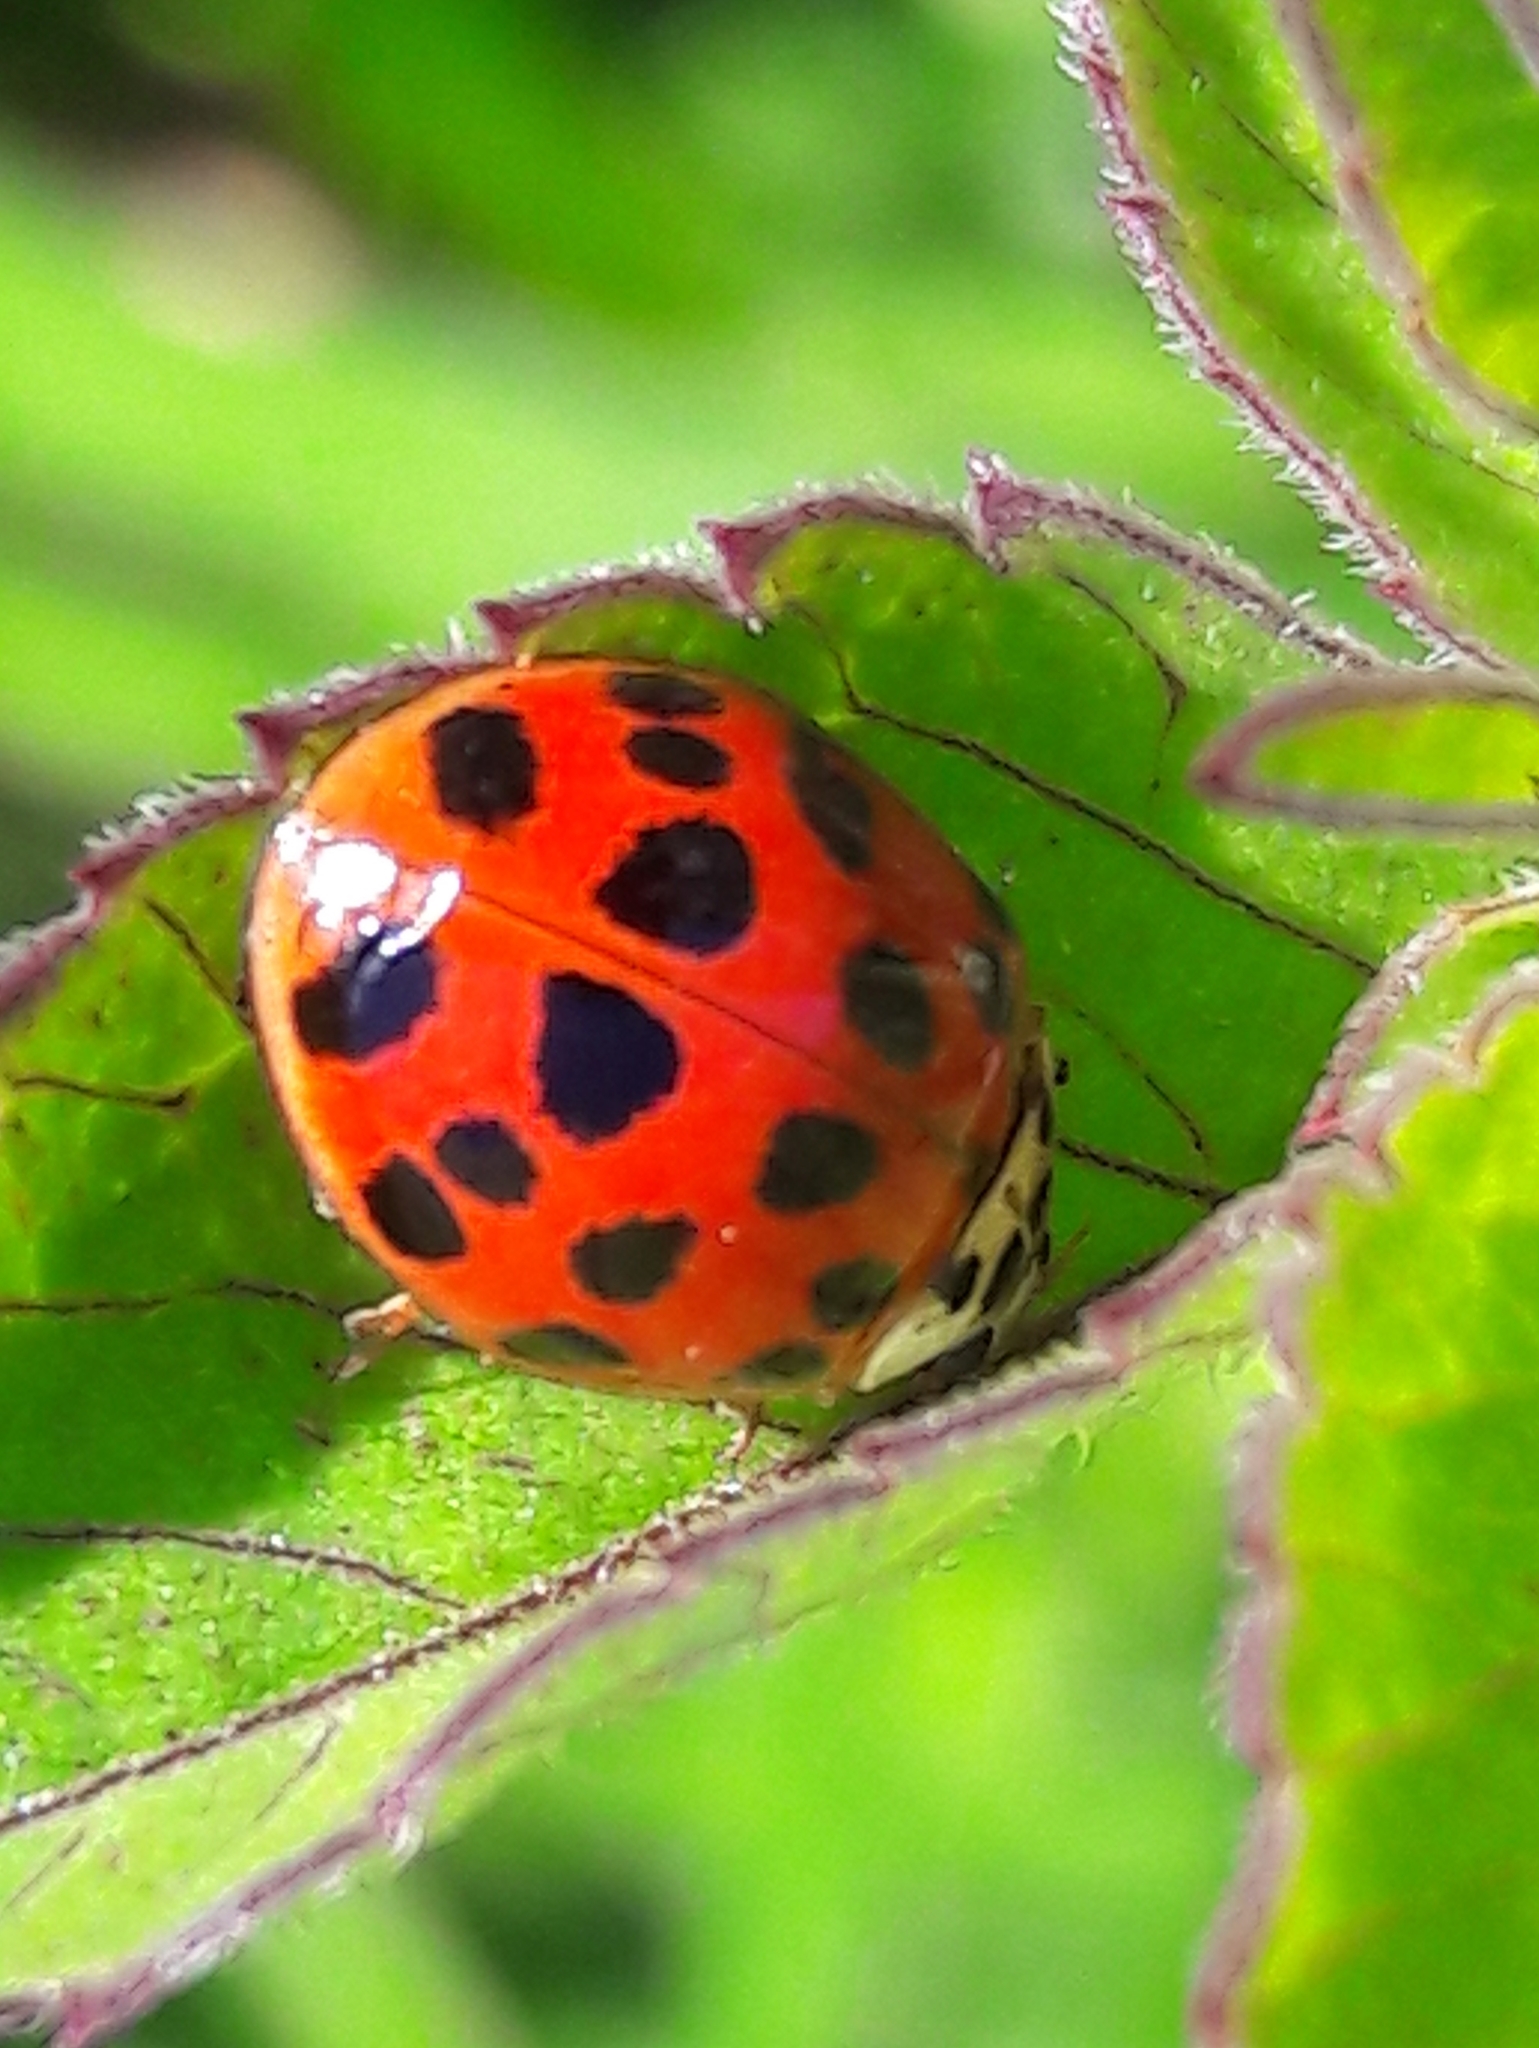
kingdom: Animalia
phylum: Arthropoda
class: Insecta
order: Coleoptera
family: Coccinellidae
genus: Harmonia
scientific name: Harmonia axyridis
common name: Harlequin ladybird
